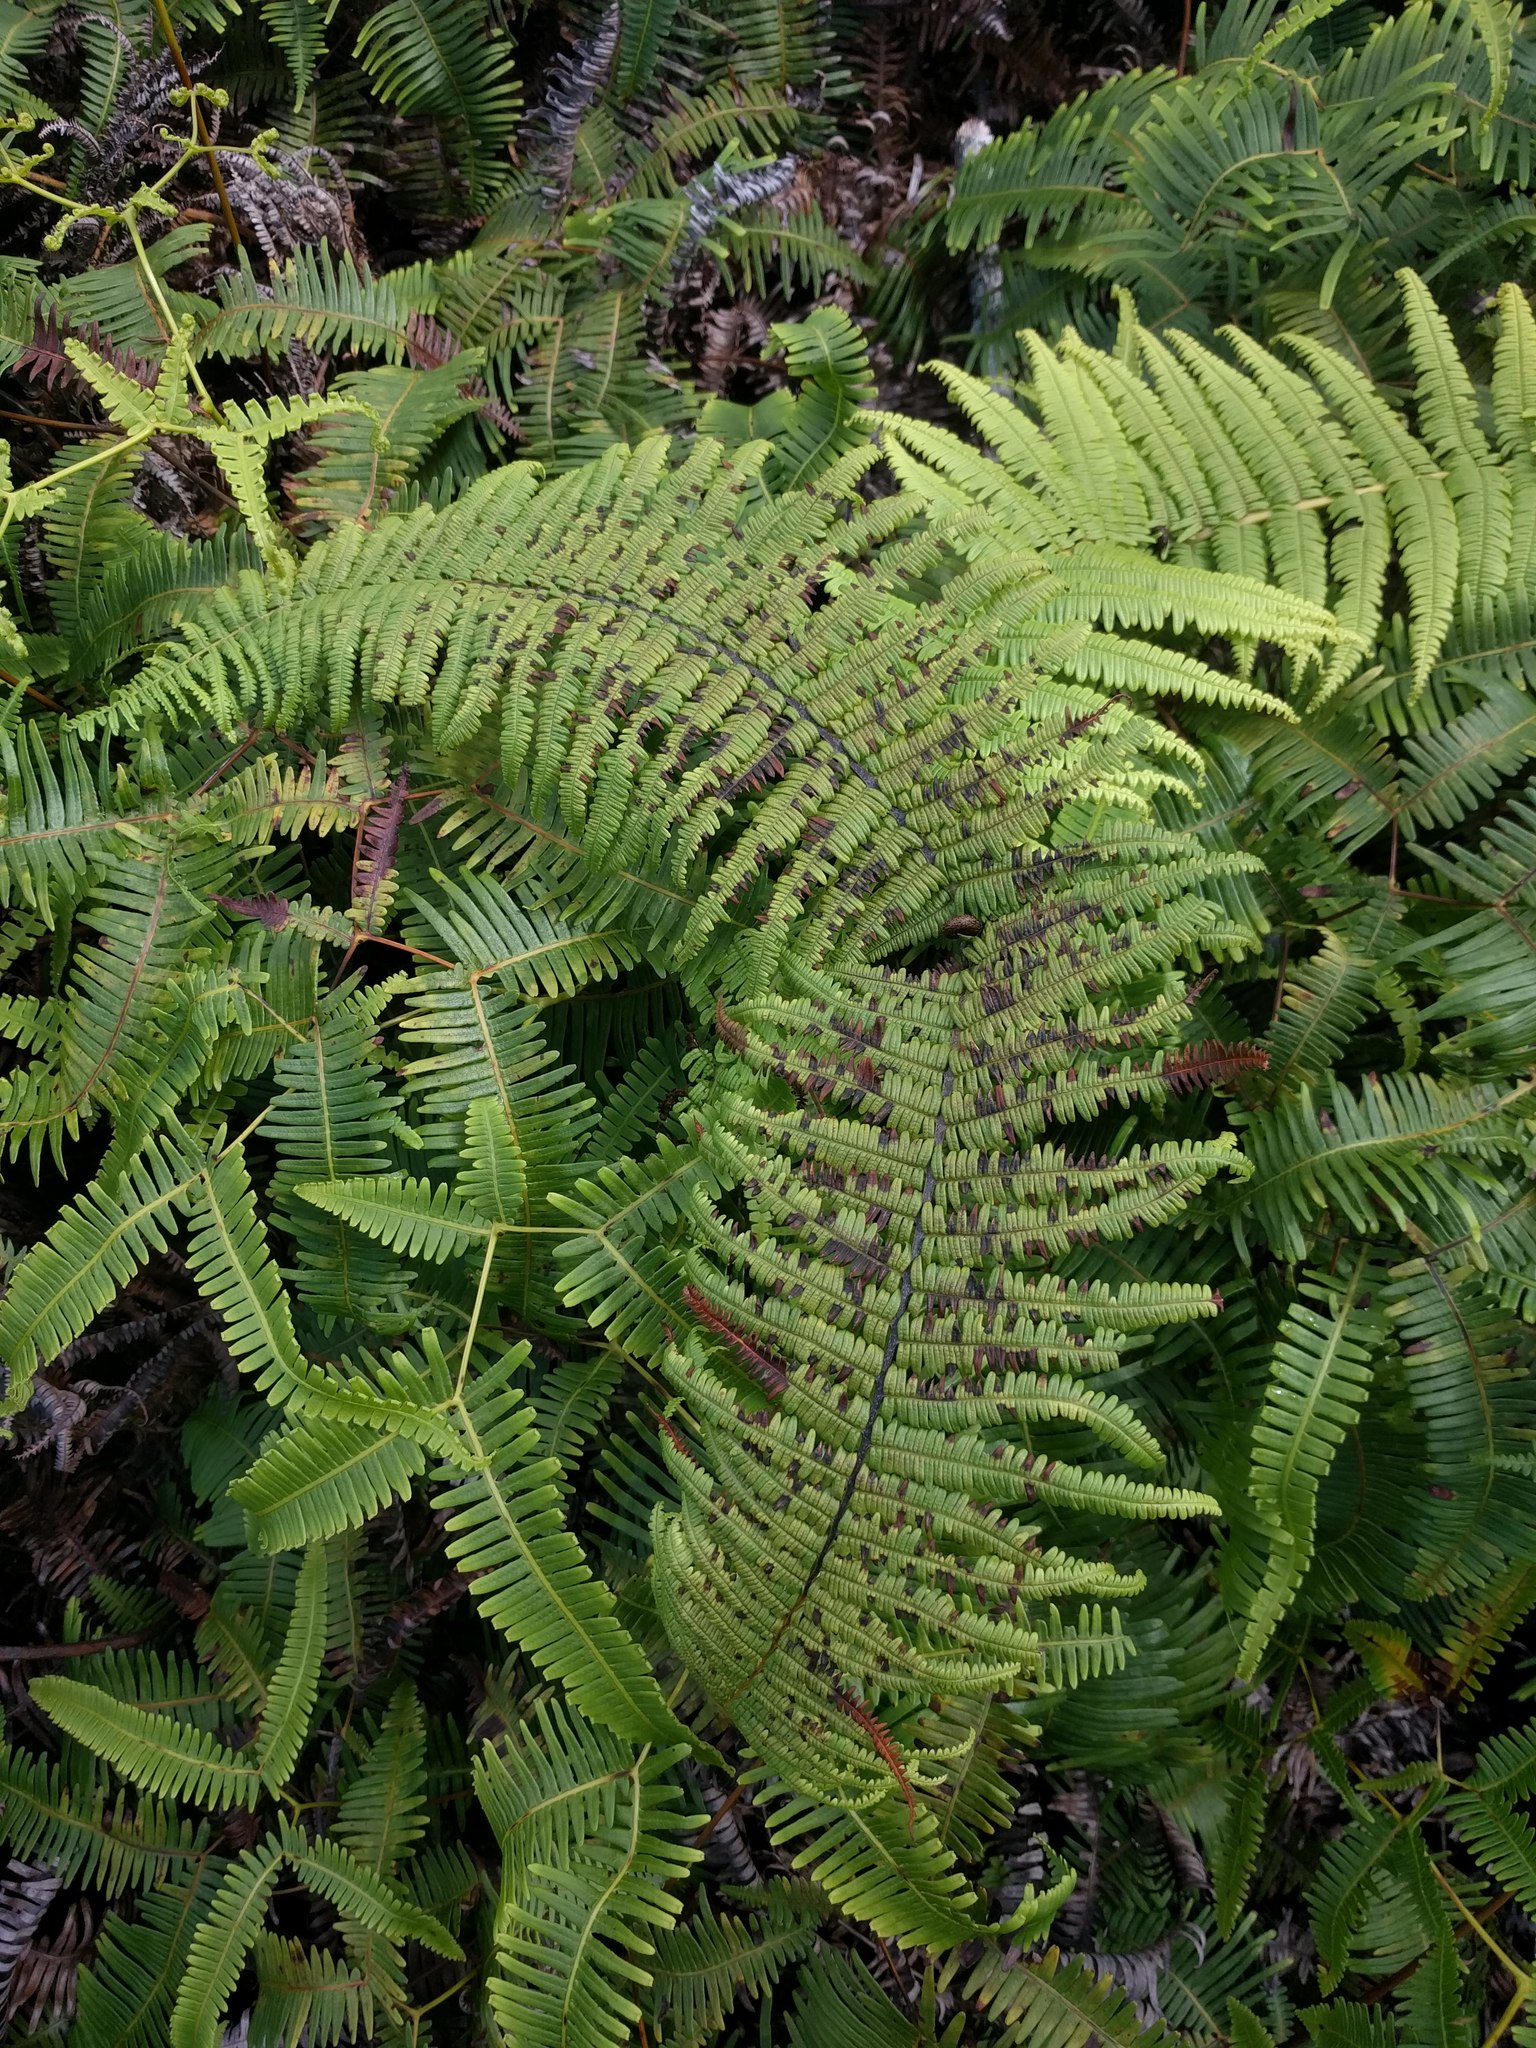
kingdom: Plantae
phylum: Tracheophyta
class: Polypodiopsida
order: Gleicheniales
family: Gleicheniaceae
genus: Diplopterygium
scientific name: Diplopterygium pinnatum
